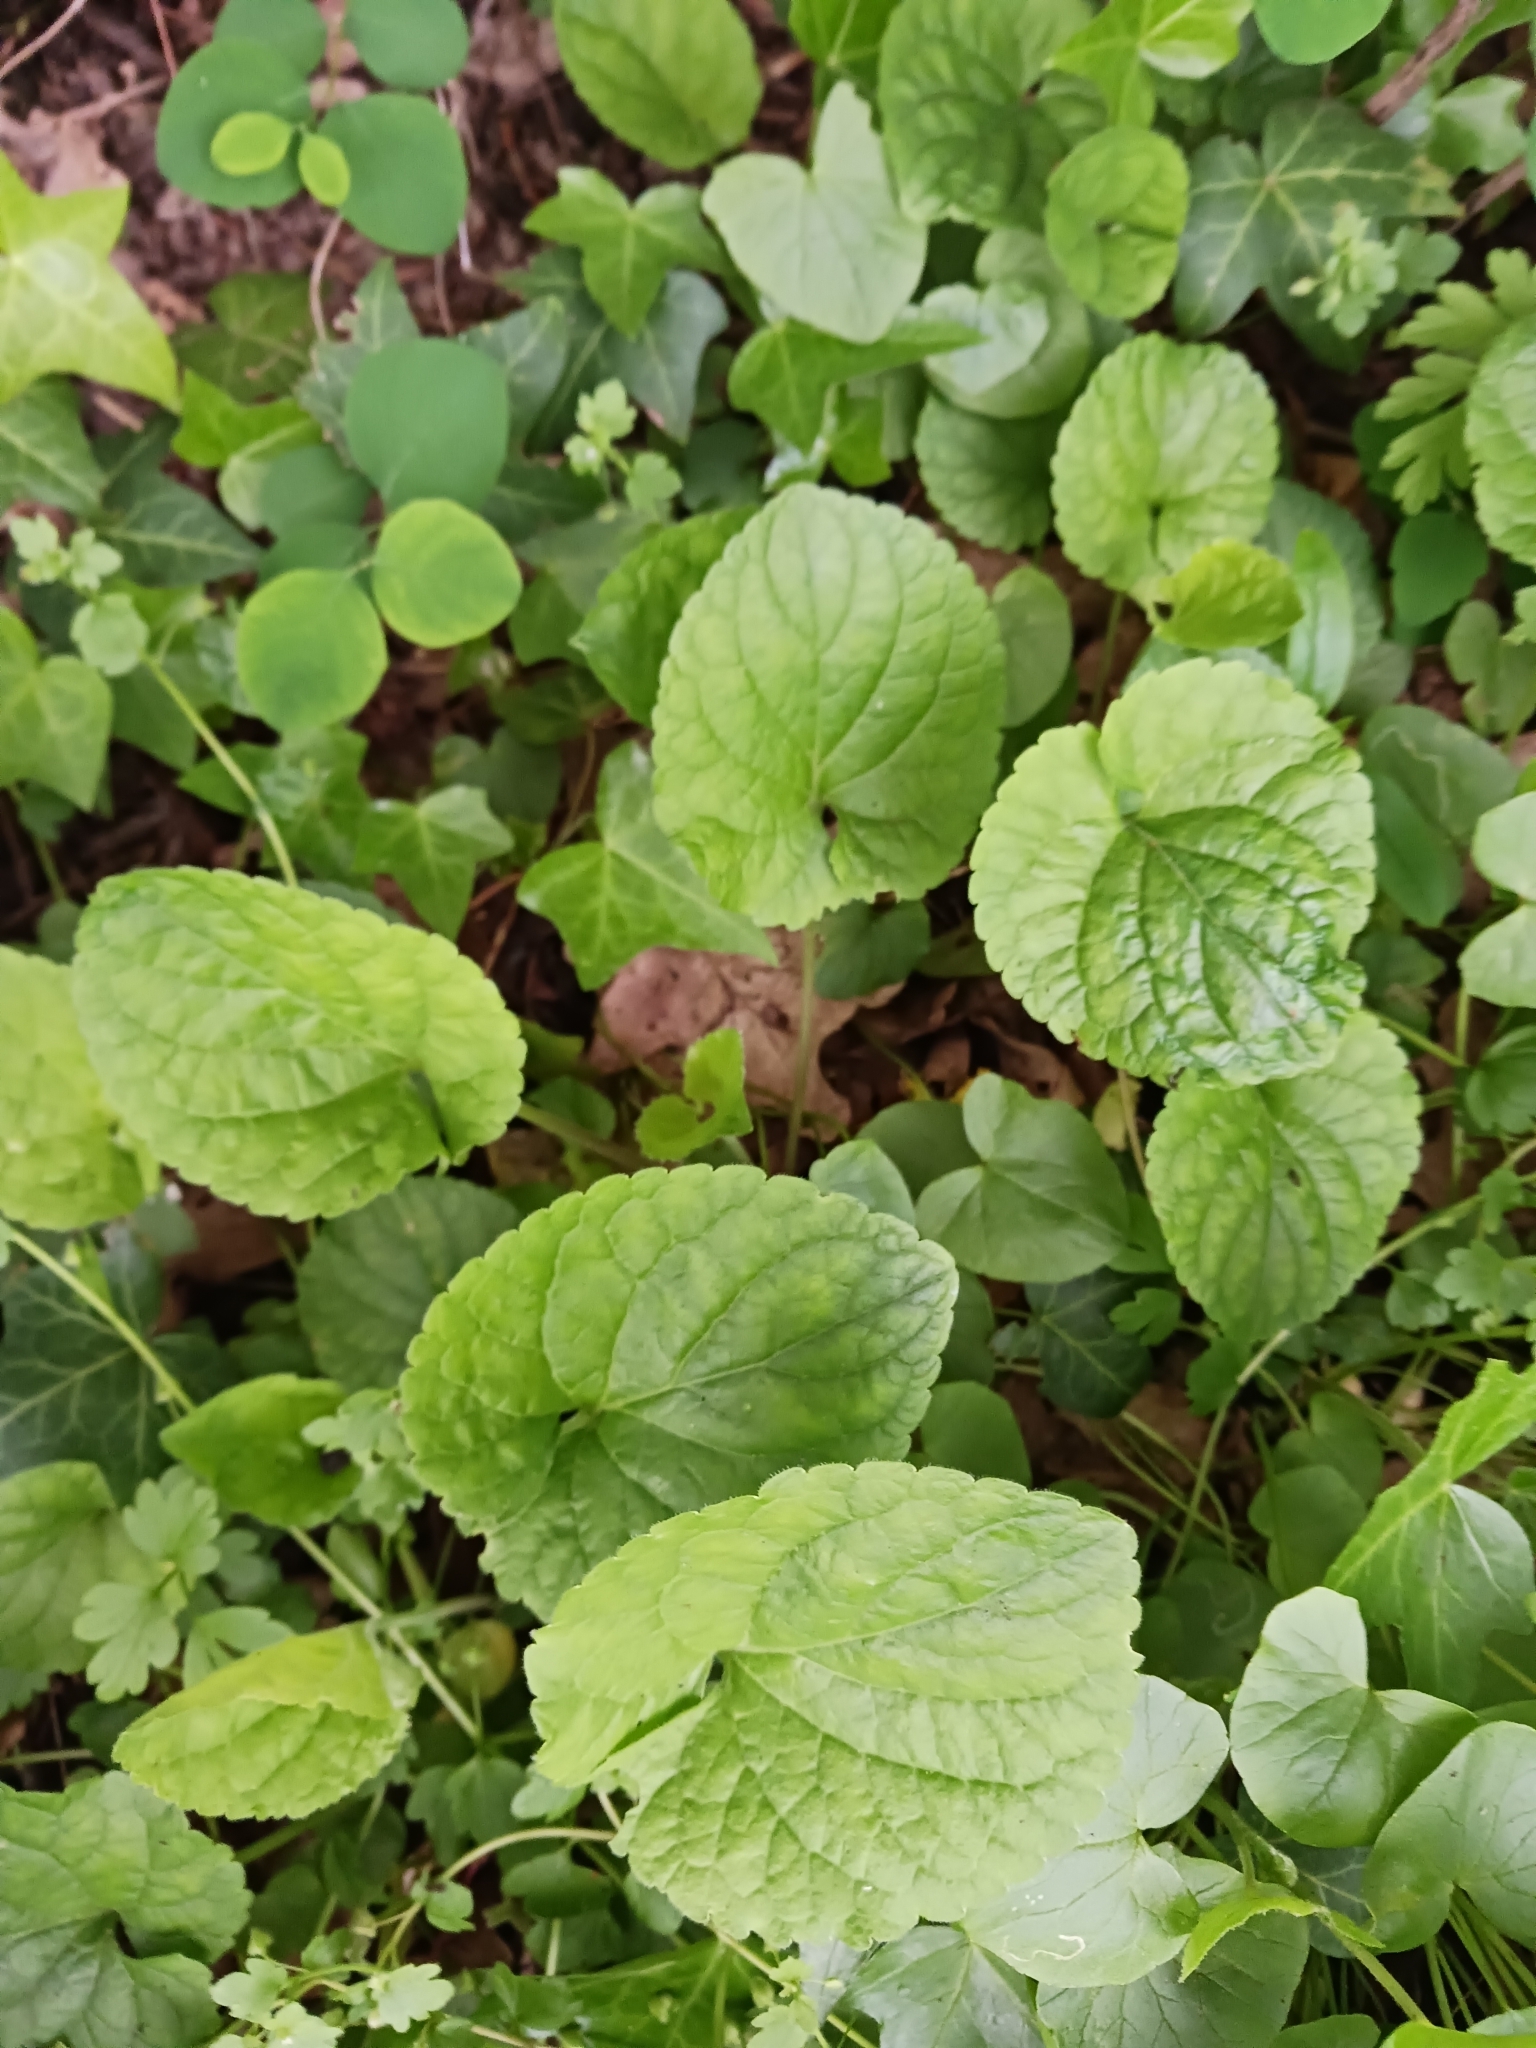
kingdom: Plantae
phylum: Tracheophyta
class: Magnoliopsida
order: Malpighiales
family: Violaceae
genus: Viola
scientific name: Viola odorata
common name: Sweet violet
